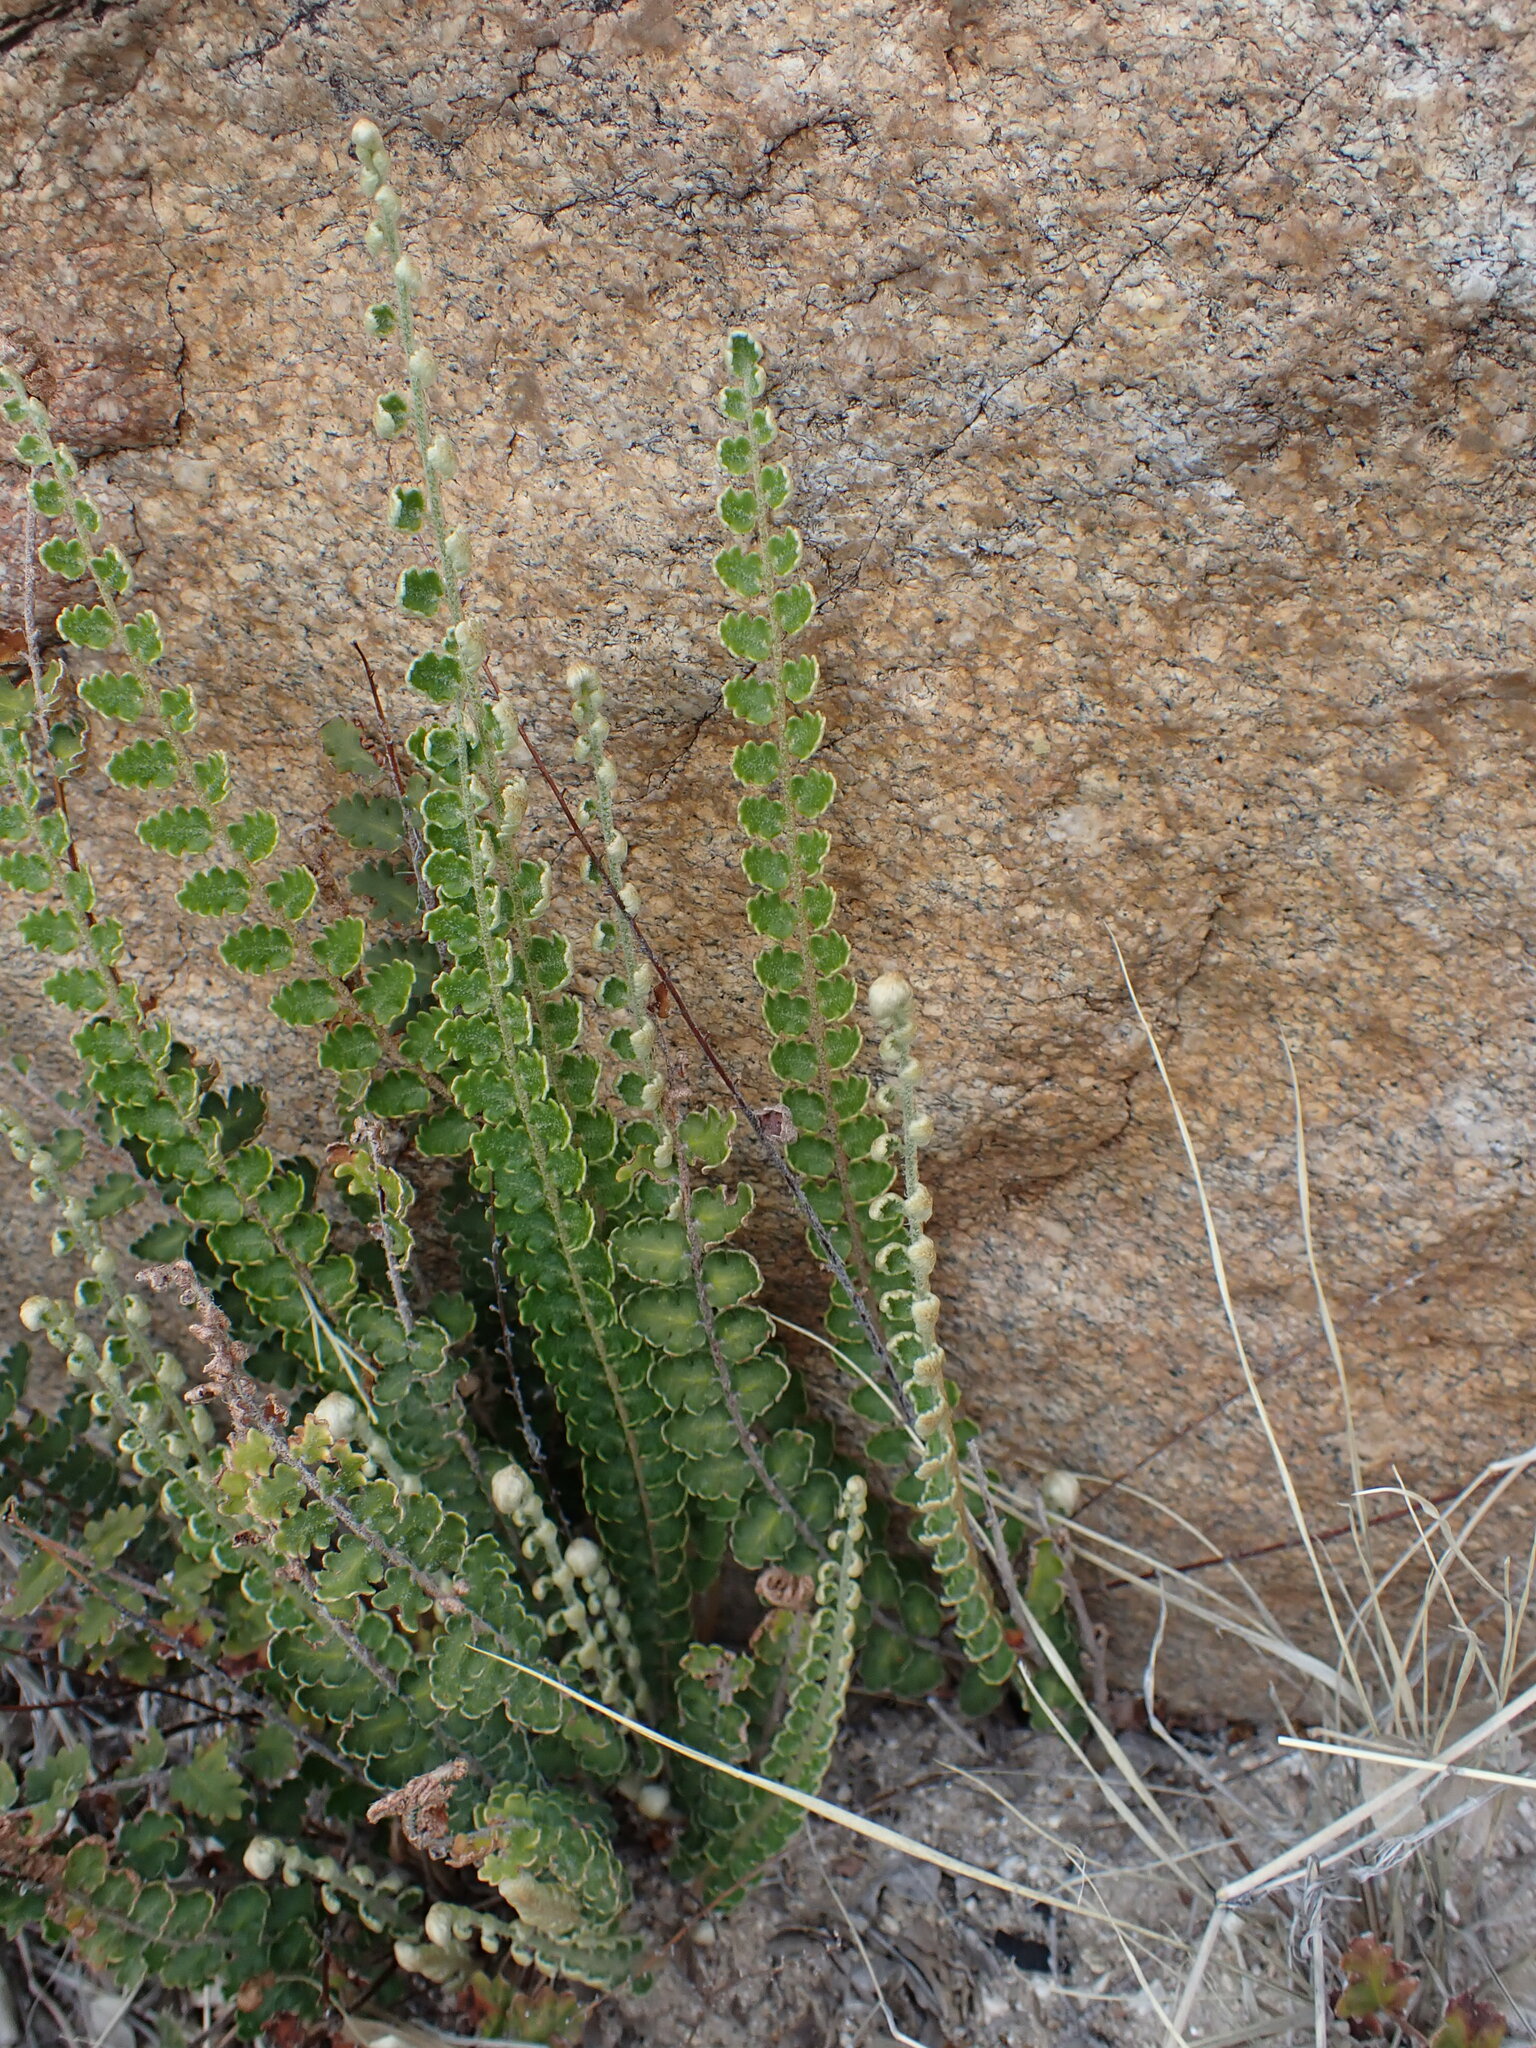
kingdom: Plantae
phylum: Tracheophyta
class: Polypodiopsida
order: Polypodiales
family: Pteridaceae
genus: Astrolepis
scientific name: Astrolepis sinuata
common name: Wavy scaly cloakfern
